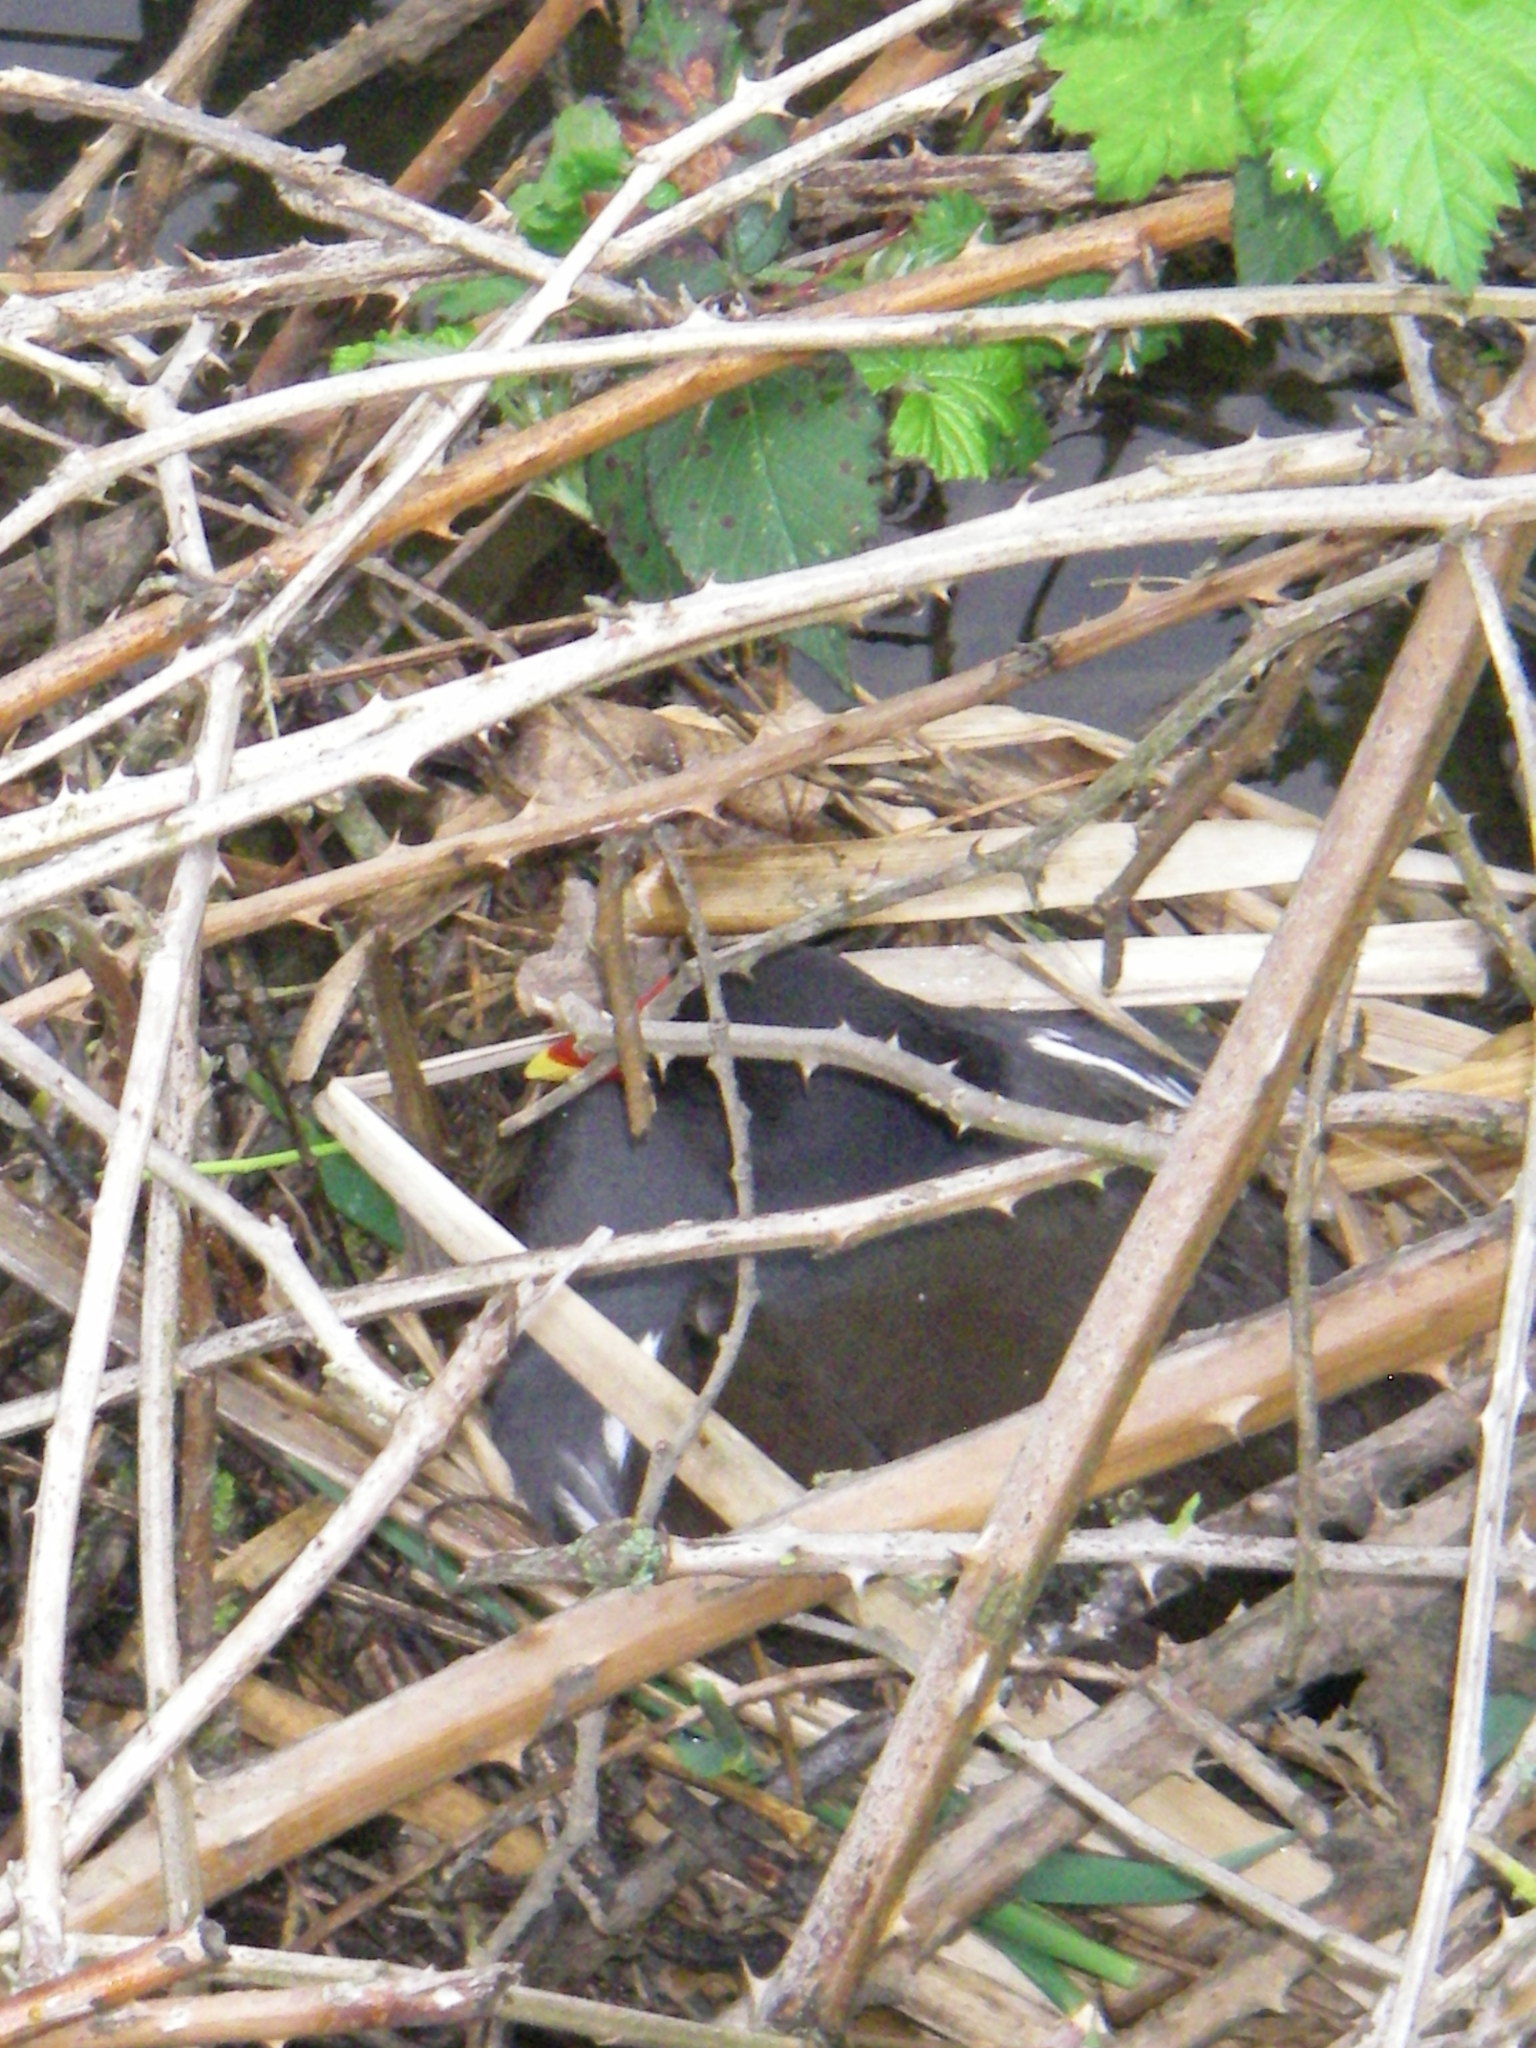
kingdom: Animalia
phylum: Chordata
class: Aves
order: Gruiformes
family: Rallidae
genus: Gallinula
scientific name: Gallinula chloropus
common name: Common moorhen
